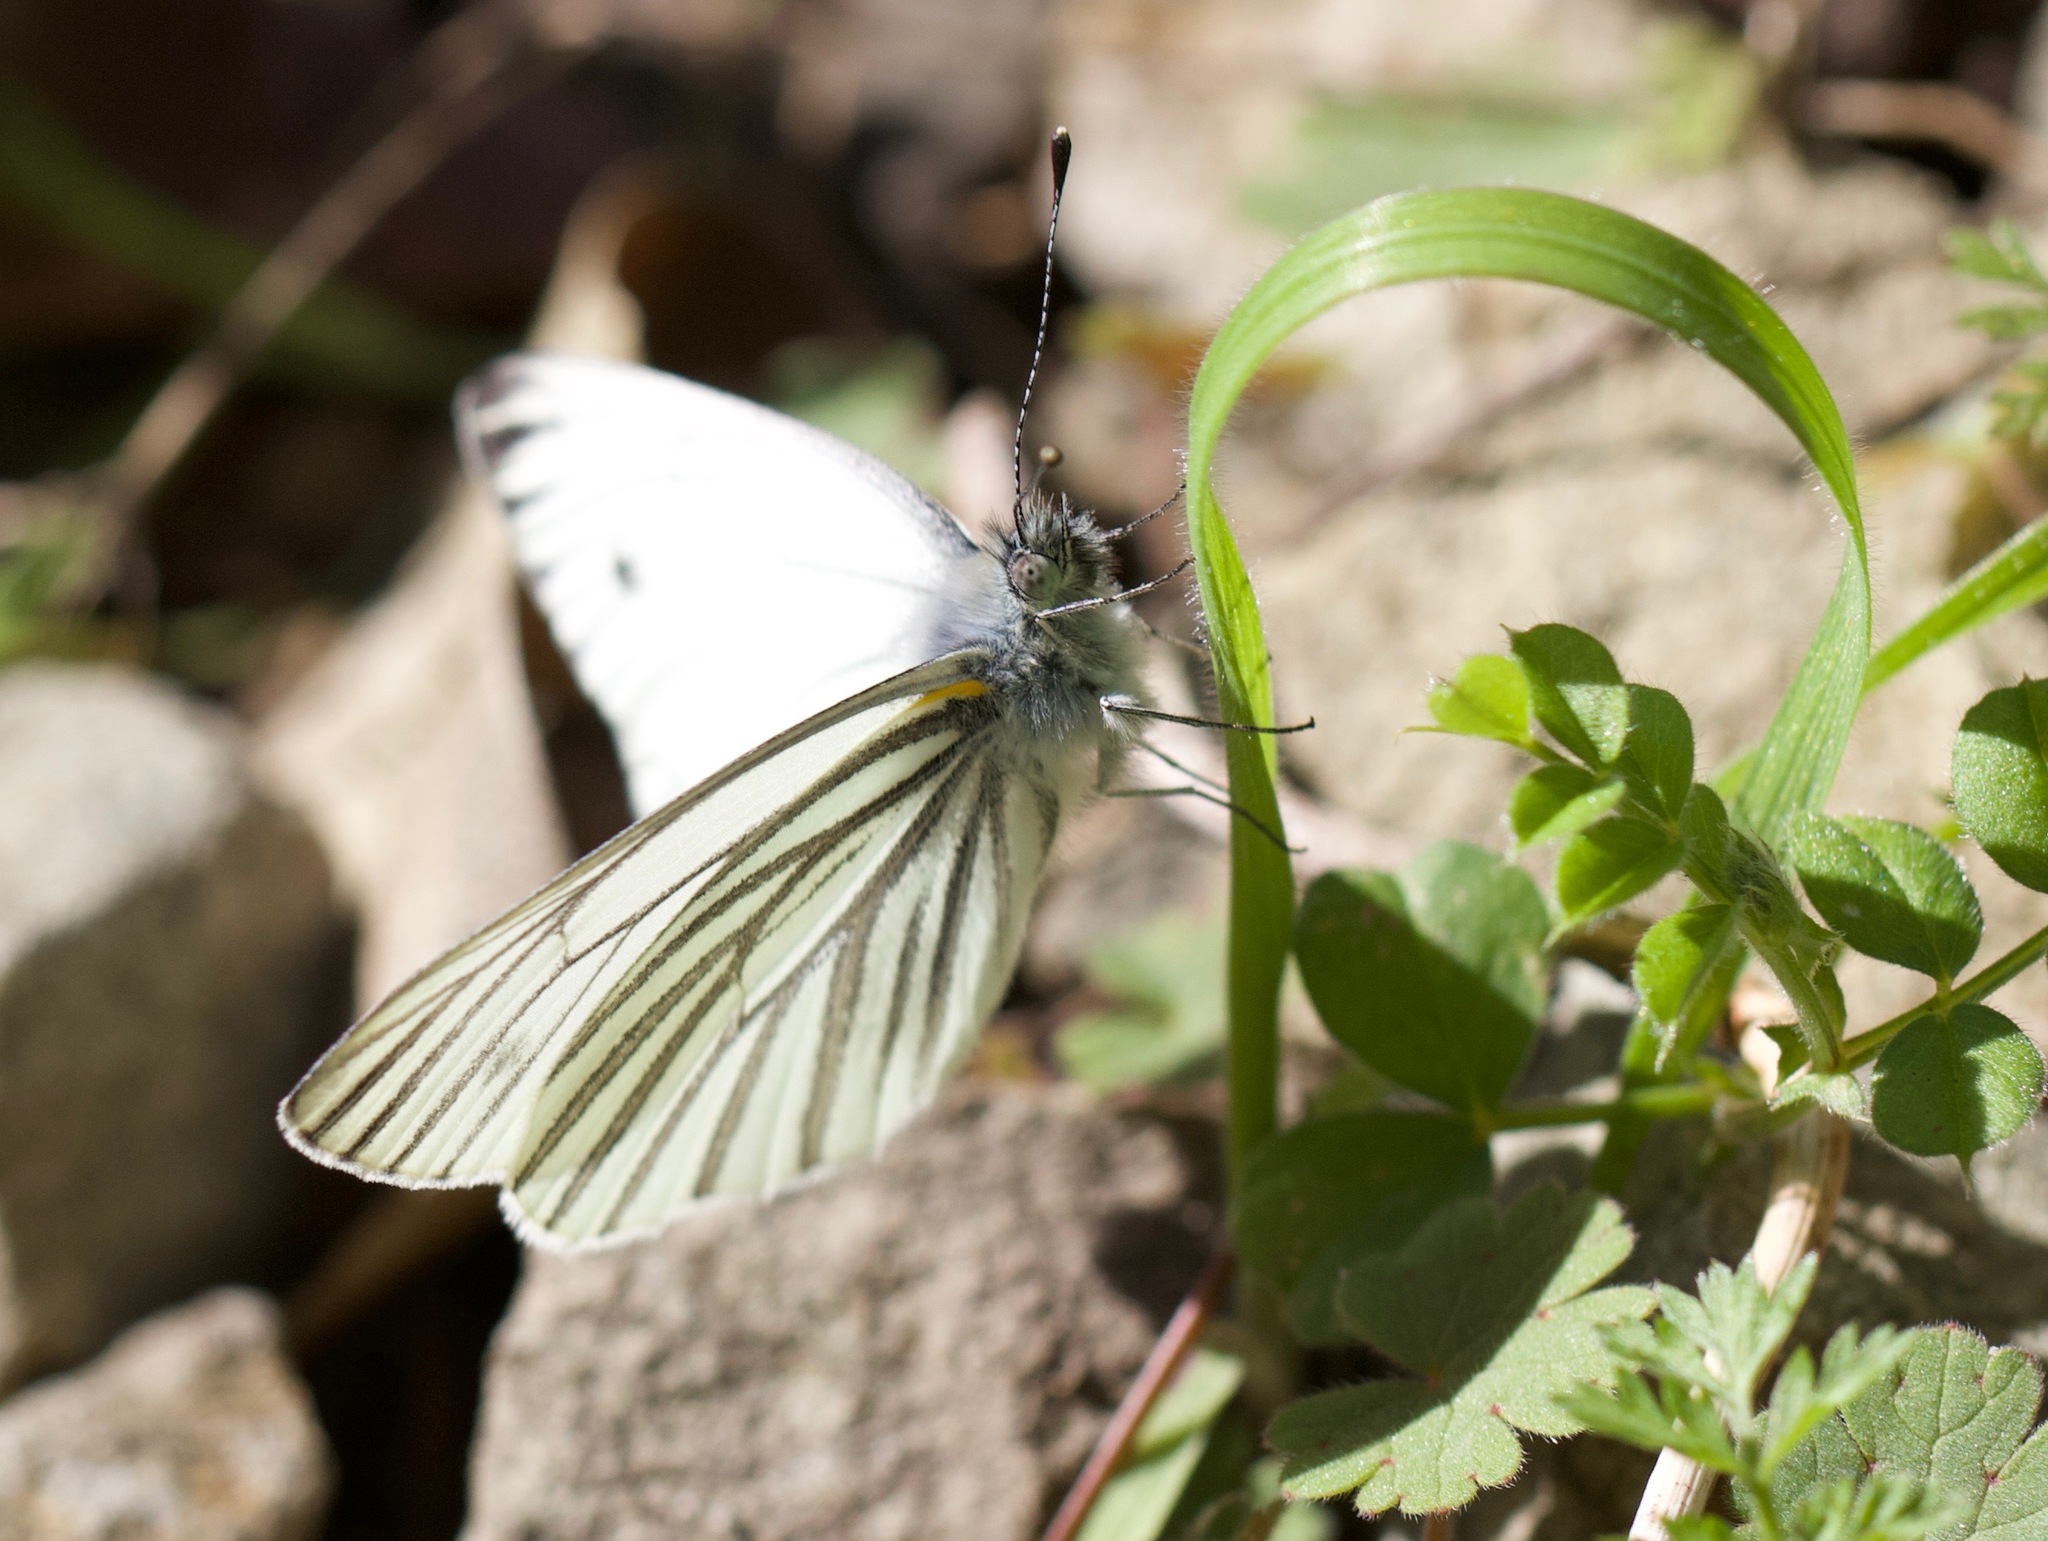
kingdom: Animalia
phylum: Arthropoda
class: Insecta
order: Lepidoptera
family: Pieridae
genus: Pieris
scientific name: Pieris marginalis
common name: Margined white
